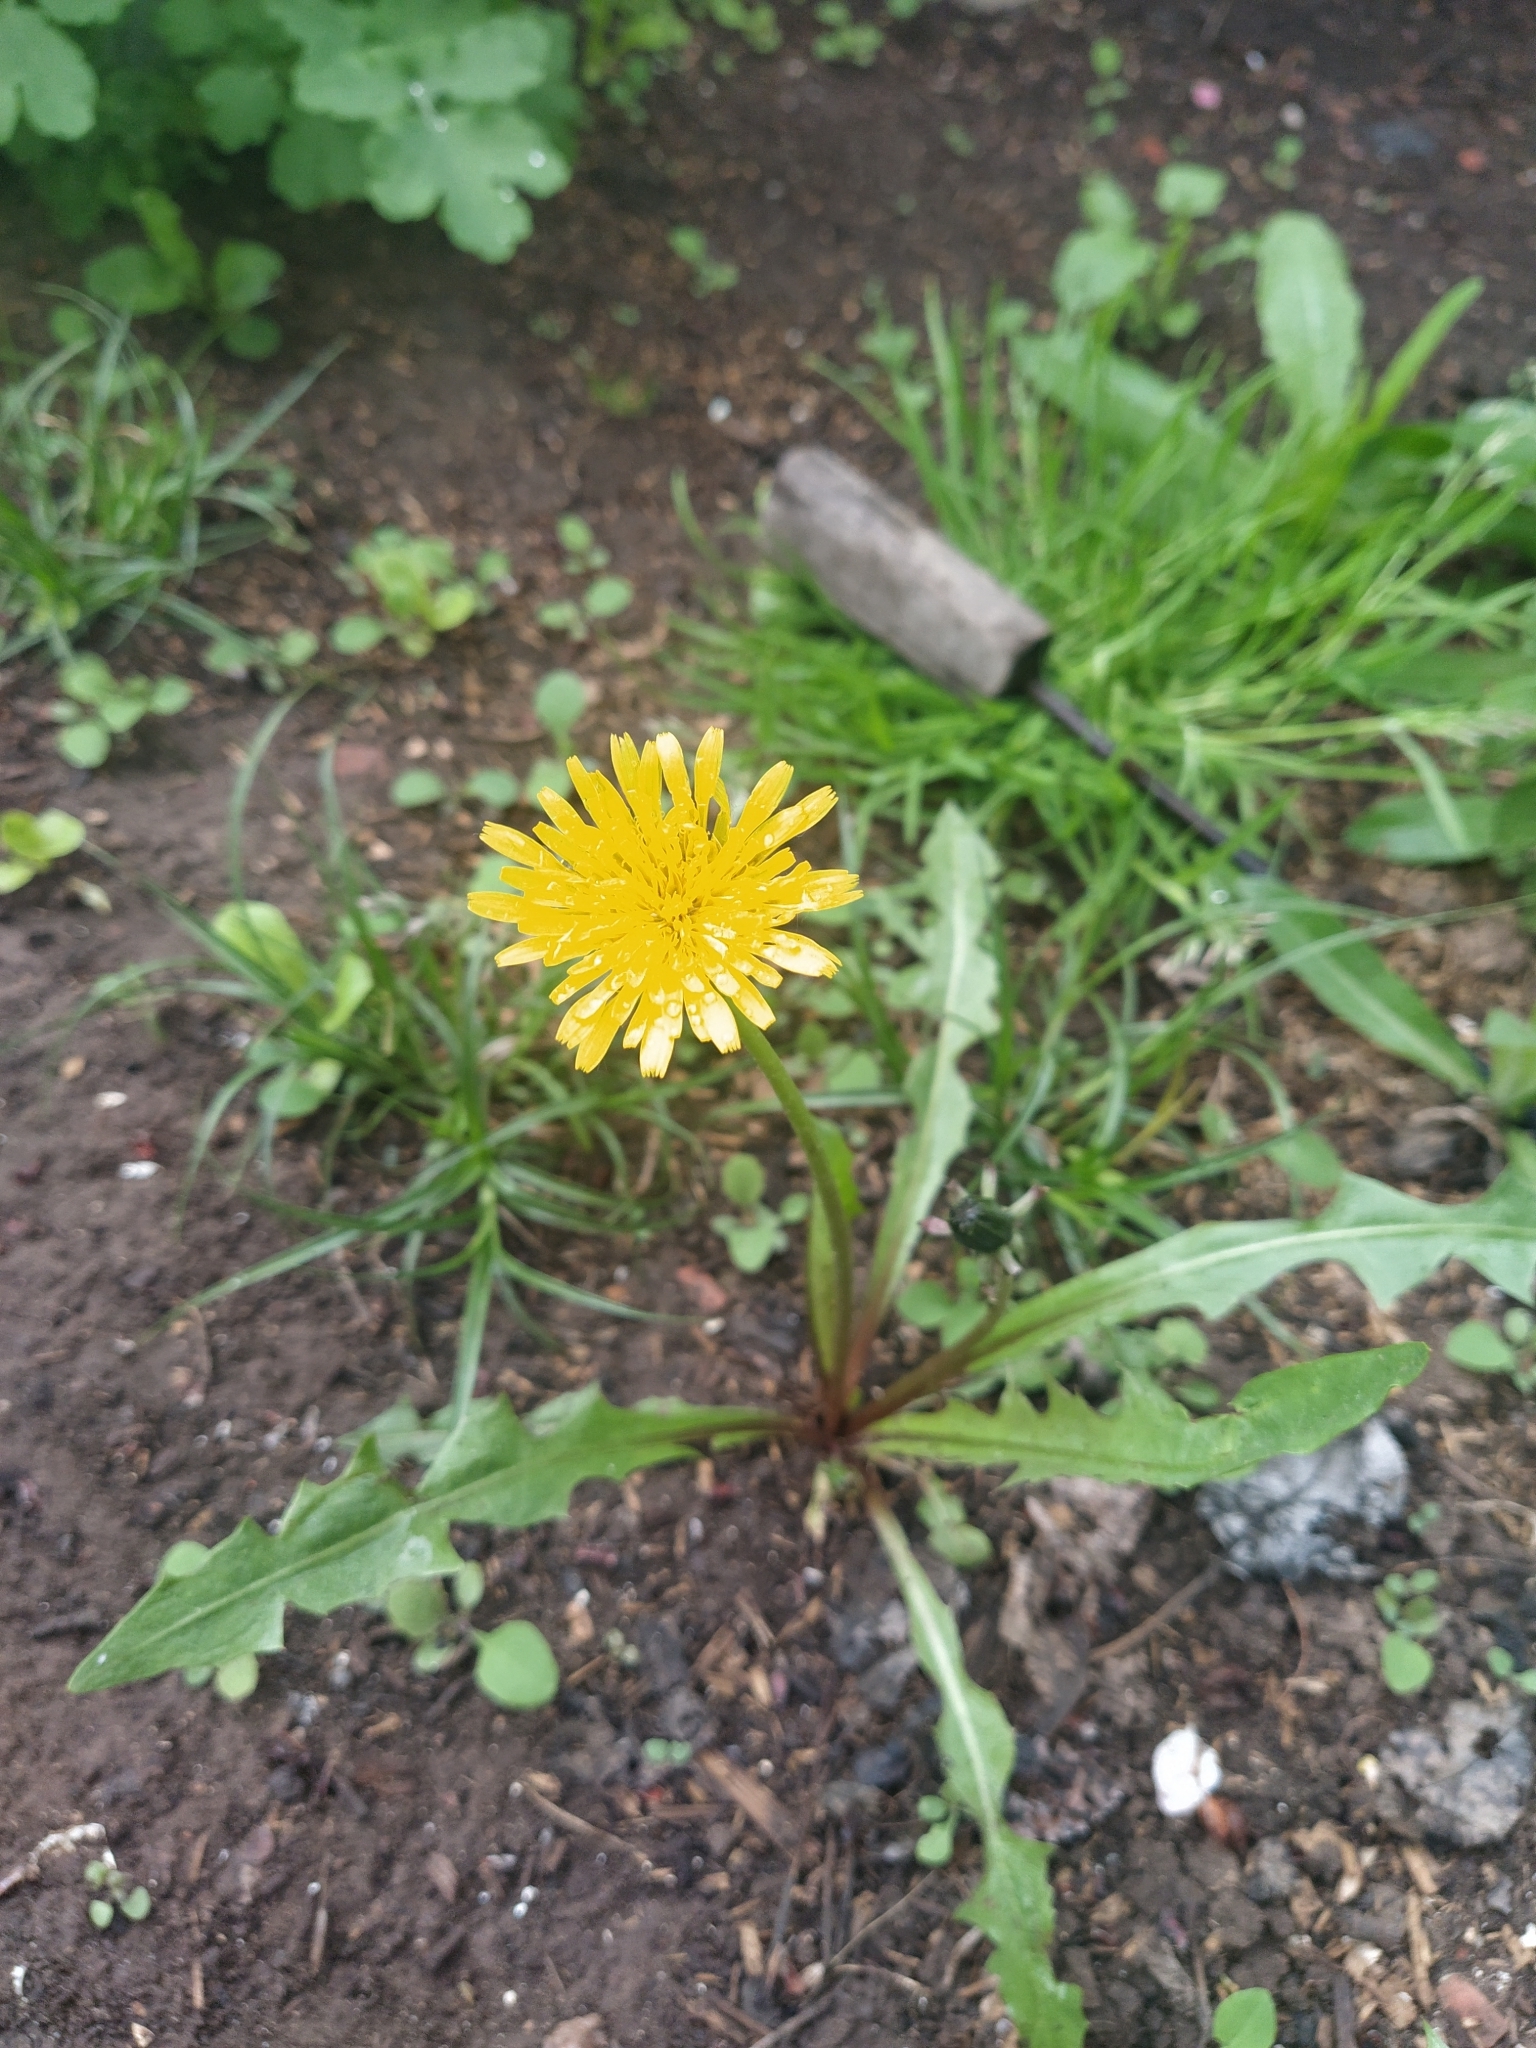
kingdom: Plantae
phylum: Tracheophyta
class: Magnoliopsida
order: Asterales
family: Asteraceae
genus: Taraxacum
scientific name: Taraxacum officinale
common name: Common dandelion
